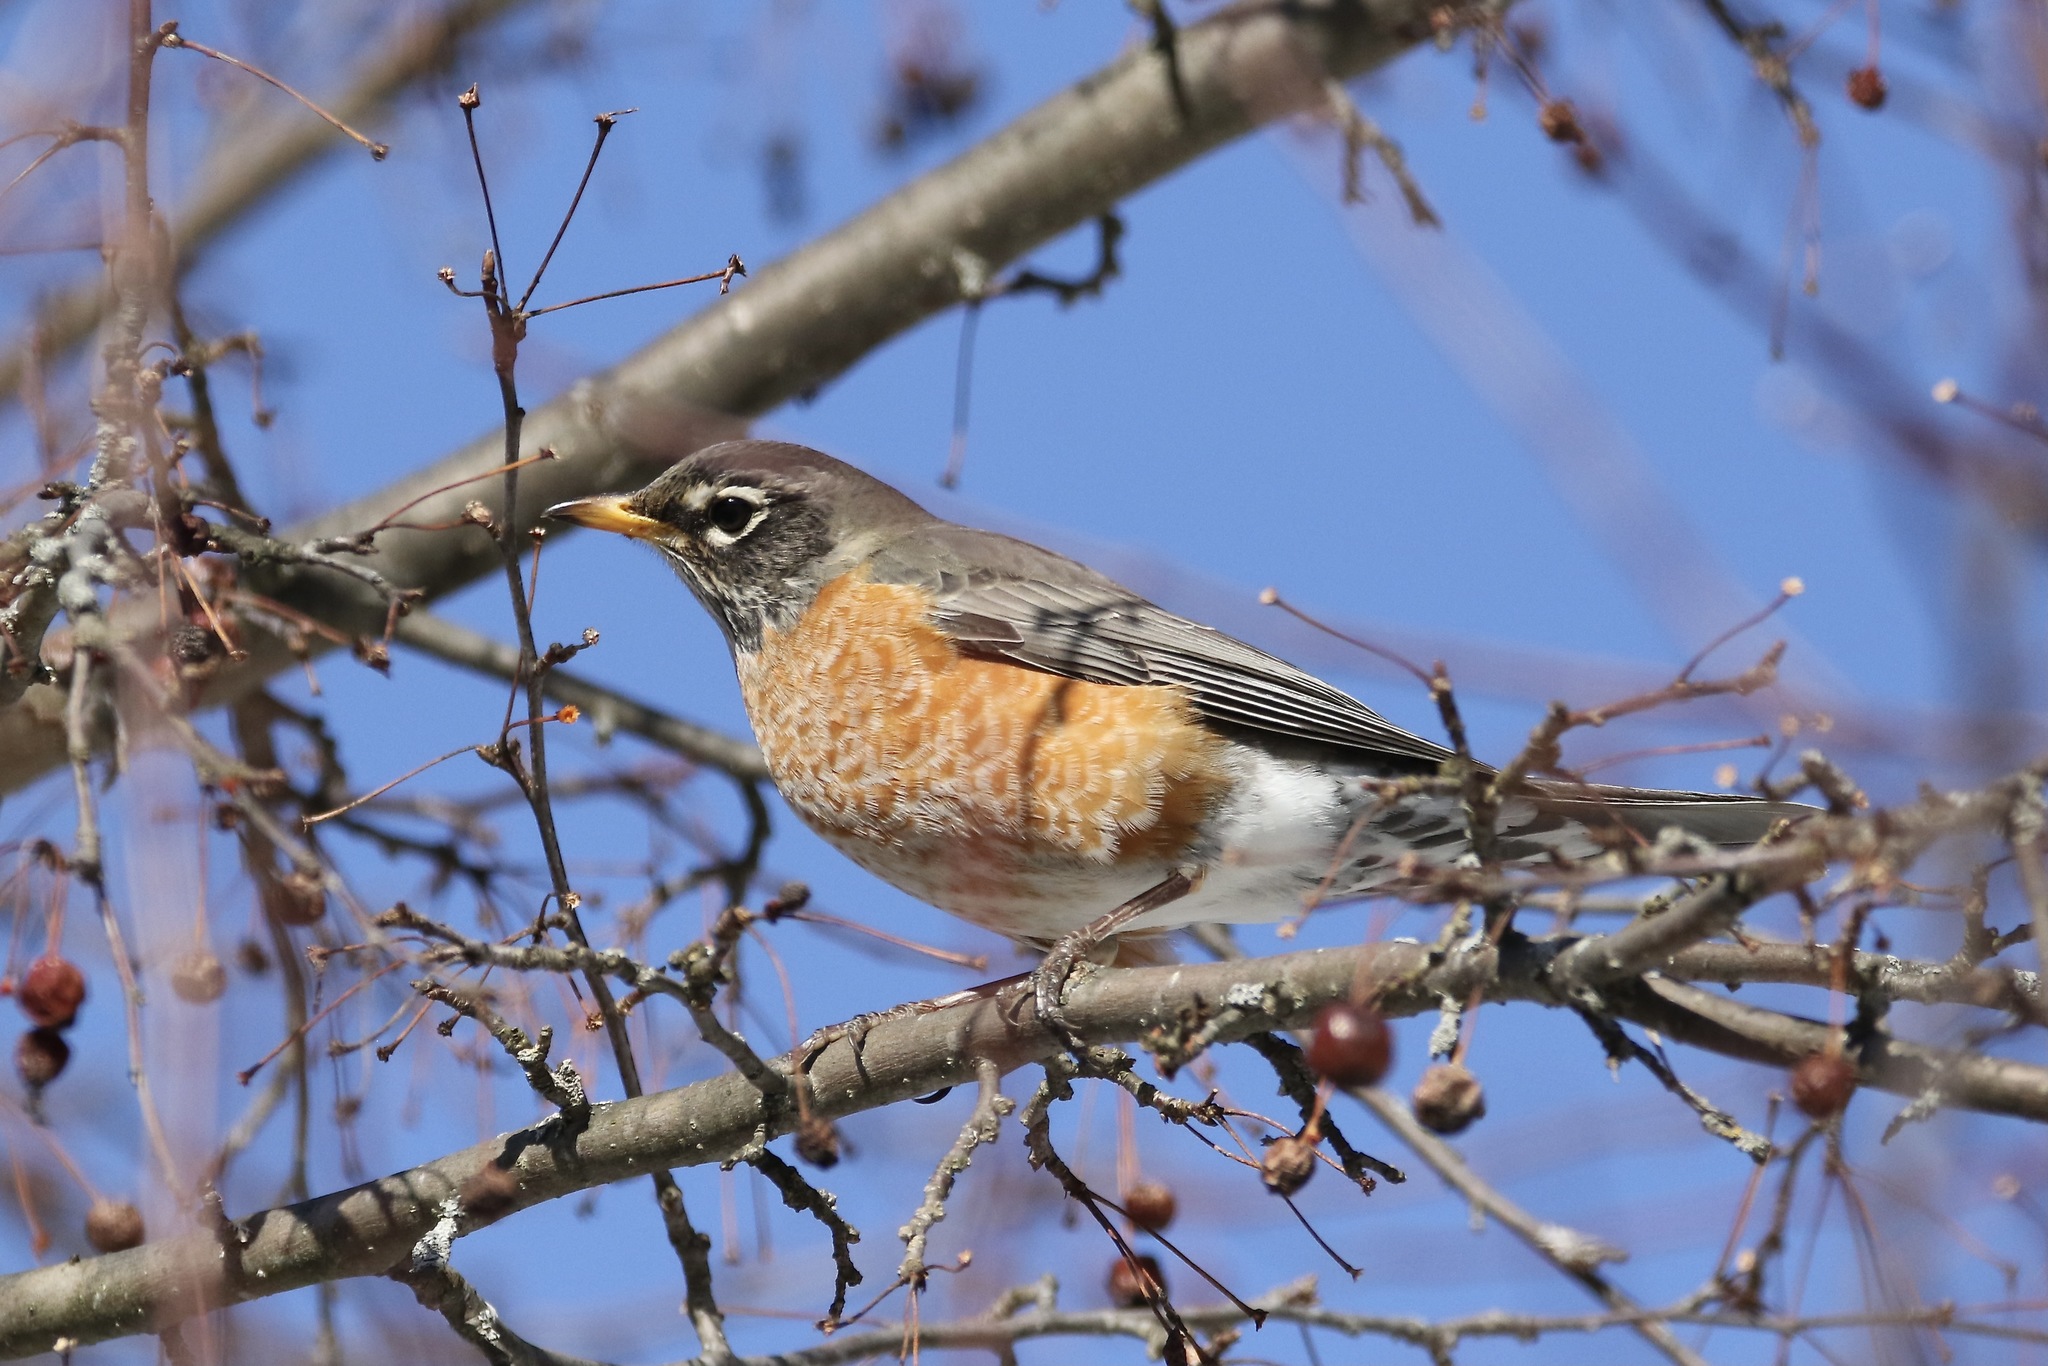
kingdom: Animalia
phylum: Chordata
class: Aves
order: Passeriformes
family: Turdidae
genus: Turdus
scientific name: Turdus migratorius
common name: American robin
